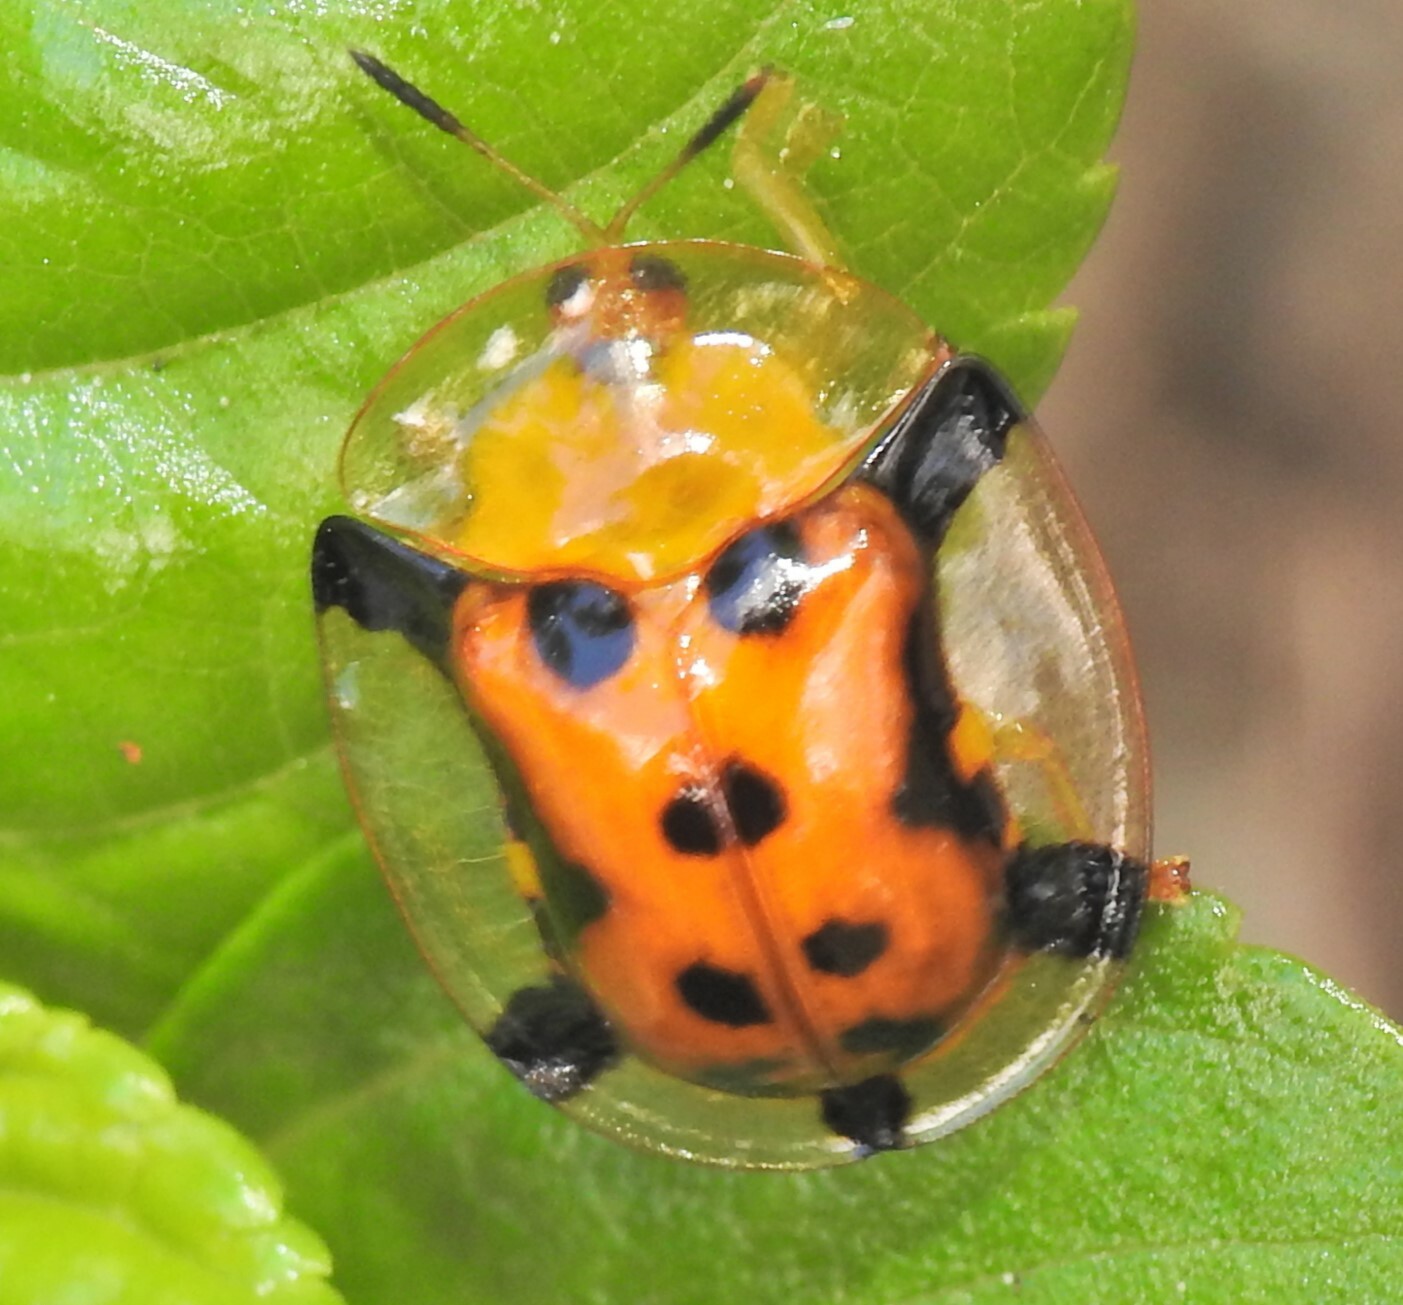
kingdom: Animalia
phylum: Arthropoda
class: Insecta
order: Coleoptera
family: Chrysomelidae
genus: Aspidimorpha
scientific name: Aspidimorpha westwoodii
